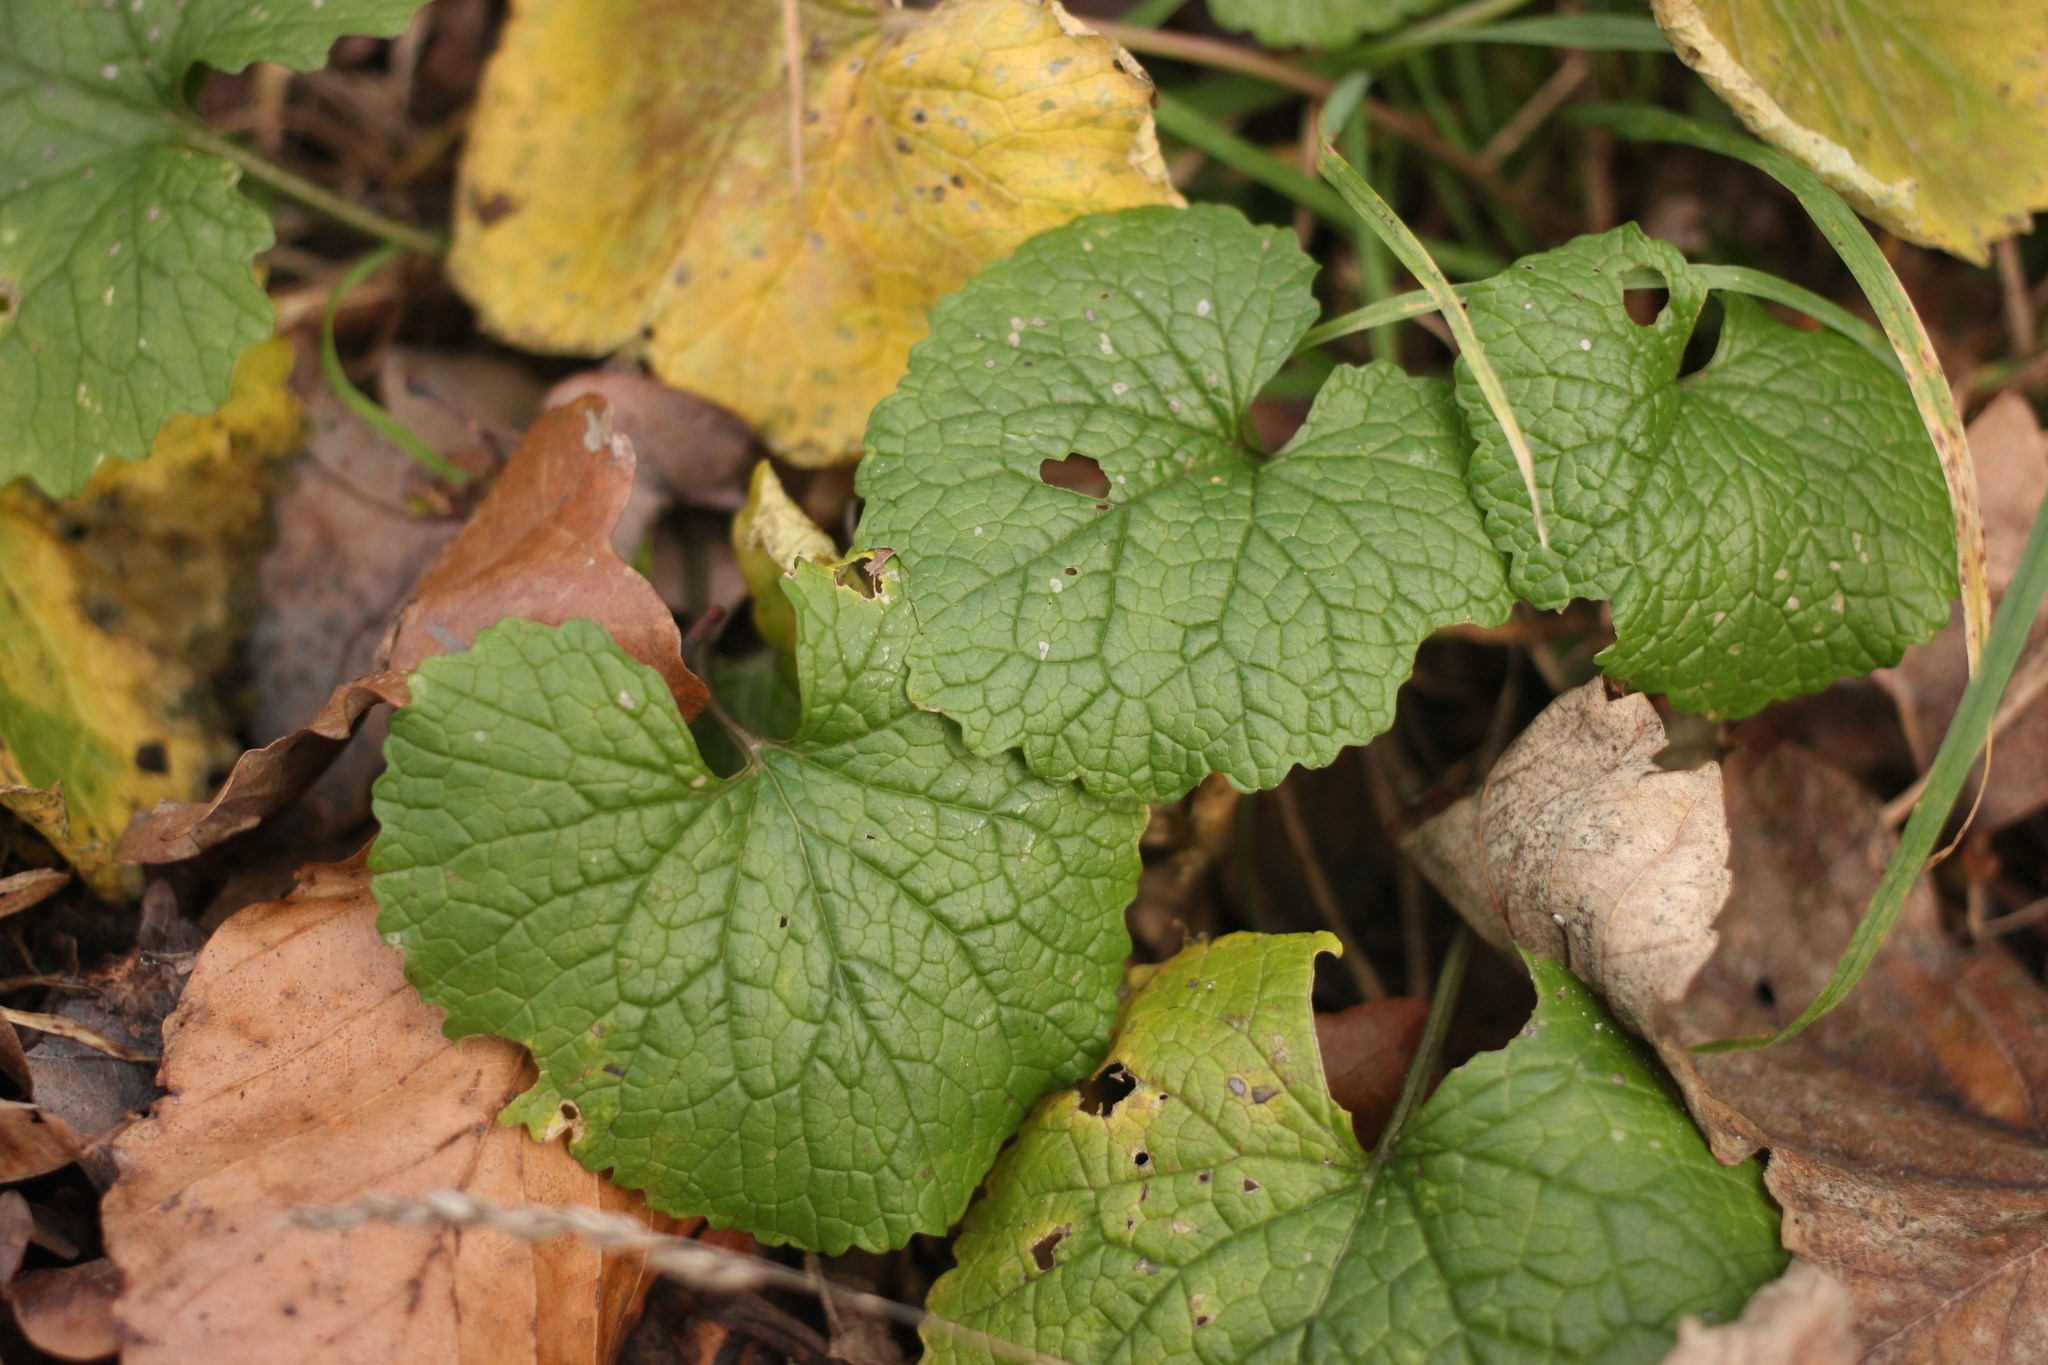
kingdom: Plantae
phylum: Tracheophyta
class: Magnoliopsida
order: Brassicales
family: Brassicaceae
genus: Alliaria
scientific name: Alliaria petiolata
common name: Garlic mustard
